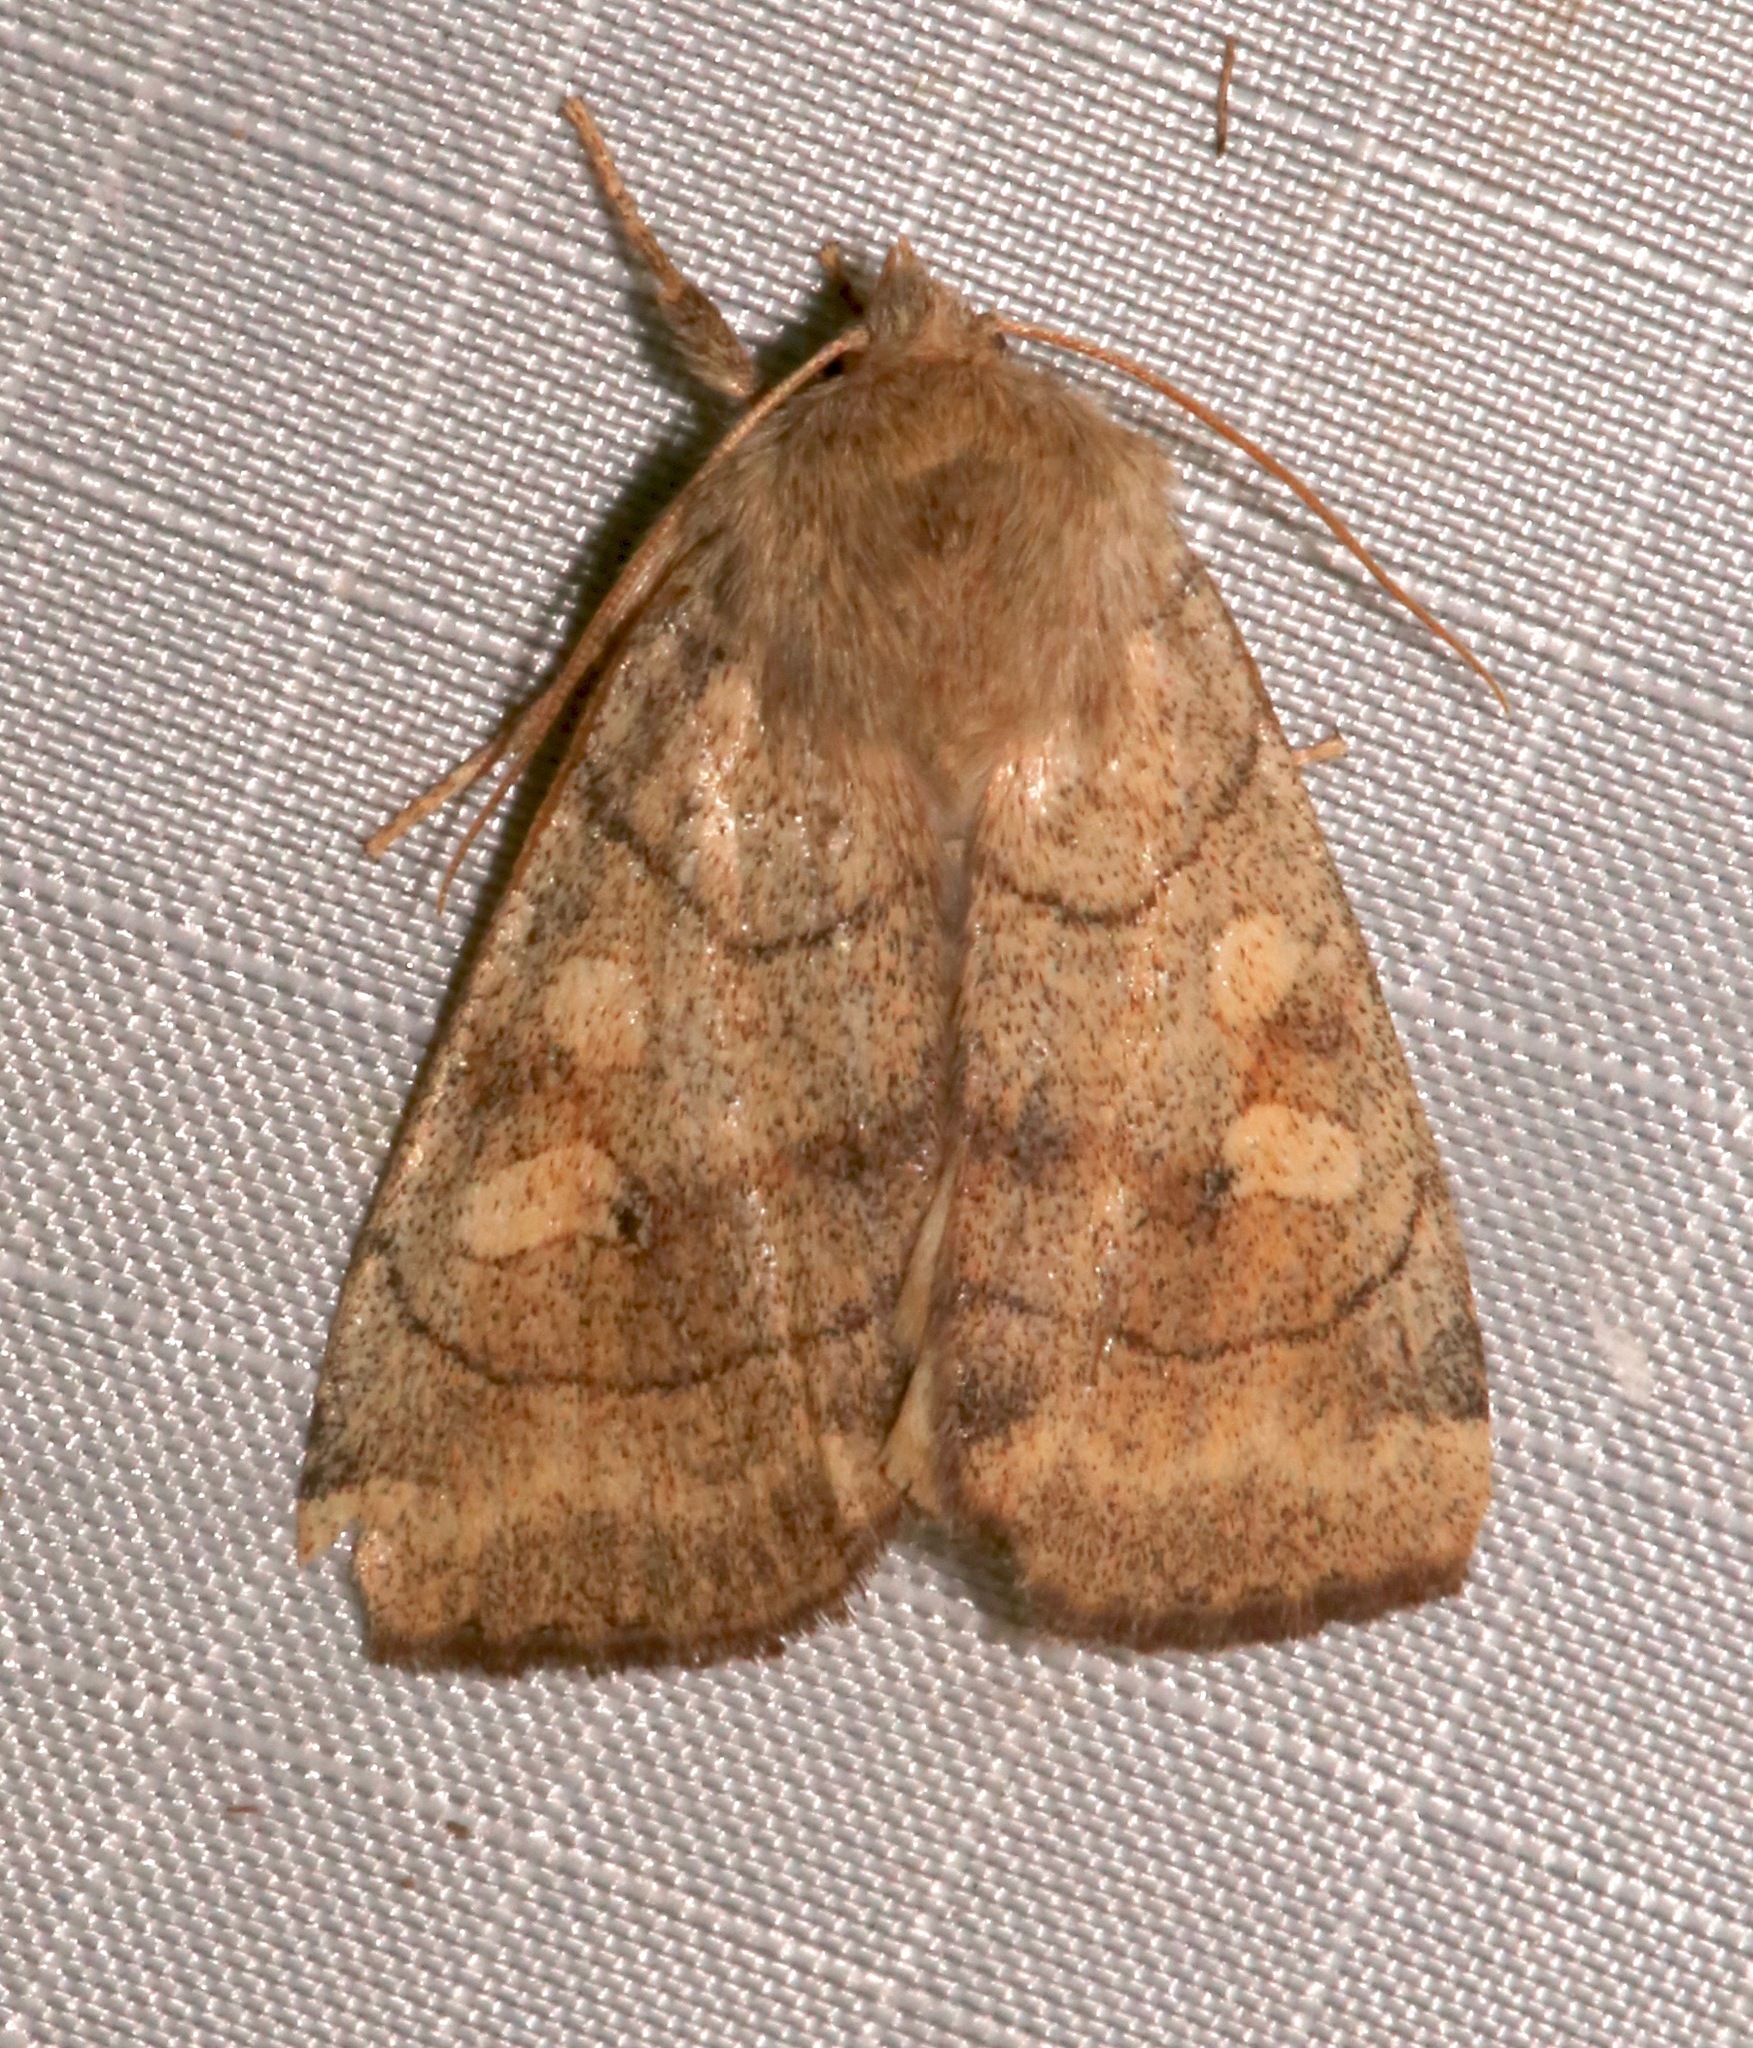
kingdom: Animalia
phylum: Arthropoda
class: Insecta
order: Lepidoptera
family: Noctuidae
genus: Enargia
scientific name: Enargia infumata
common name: Smoked sallow
